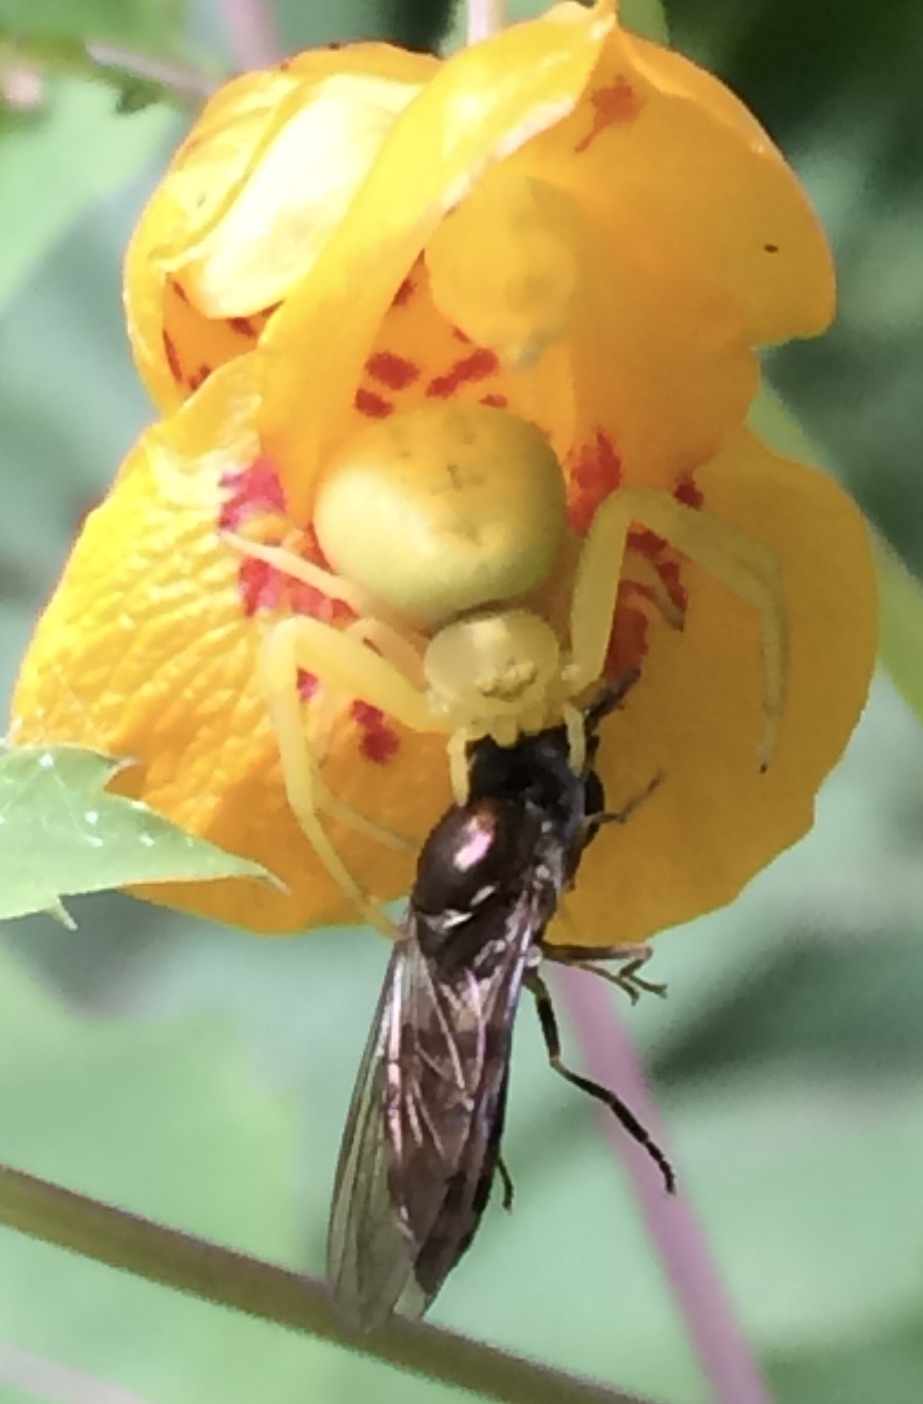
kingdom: Animalia
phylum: Arthropoda
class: Arachnida
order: Araneae
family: Thomisidae
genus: Misumenoides
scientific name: Misumenoides formosipes
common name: White-banded crab spider
